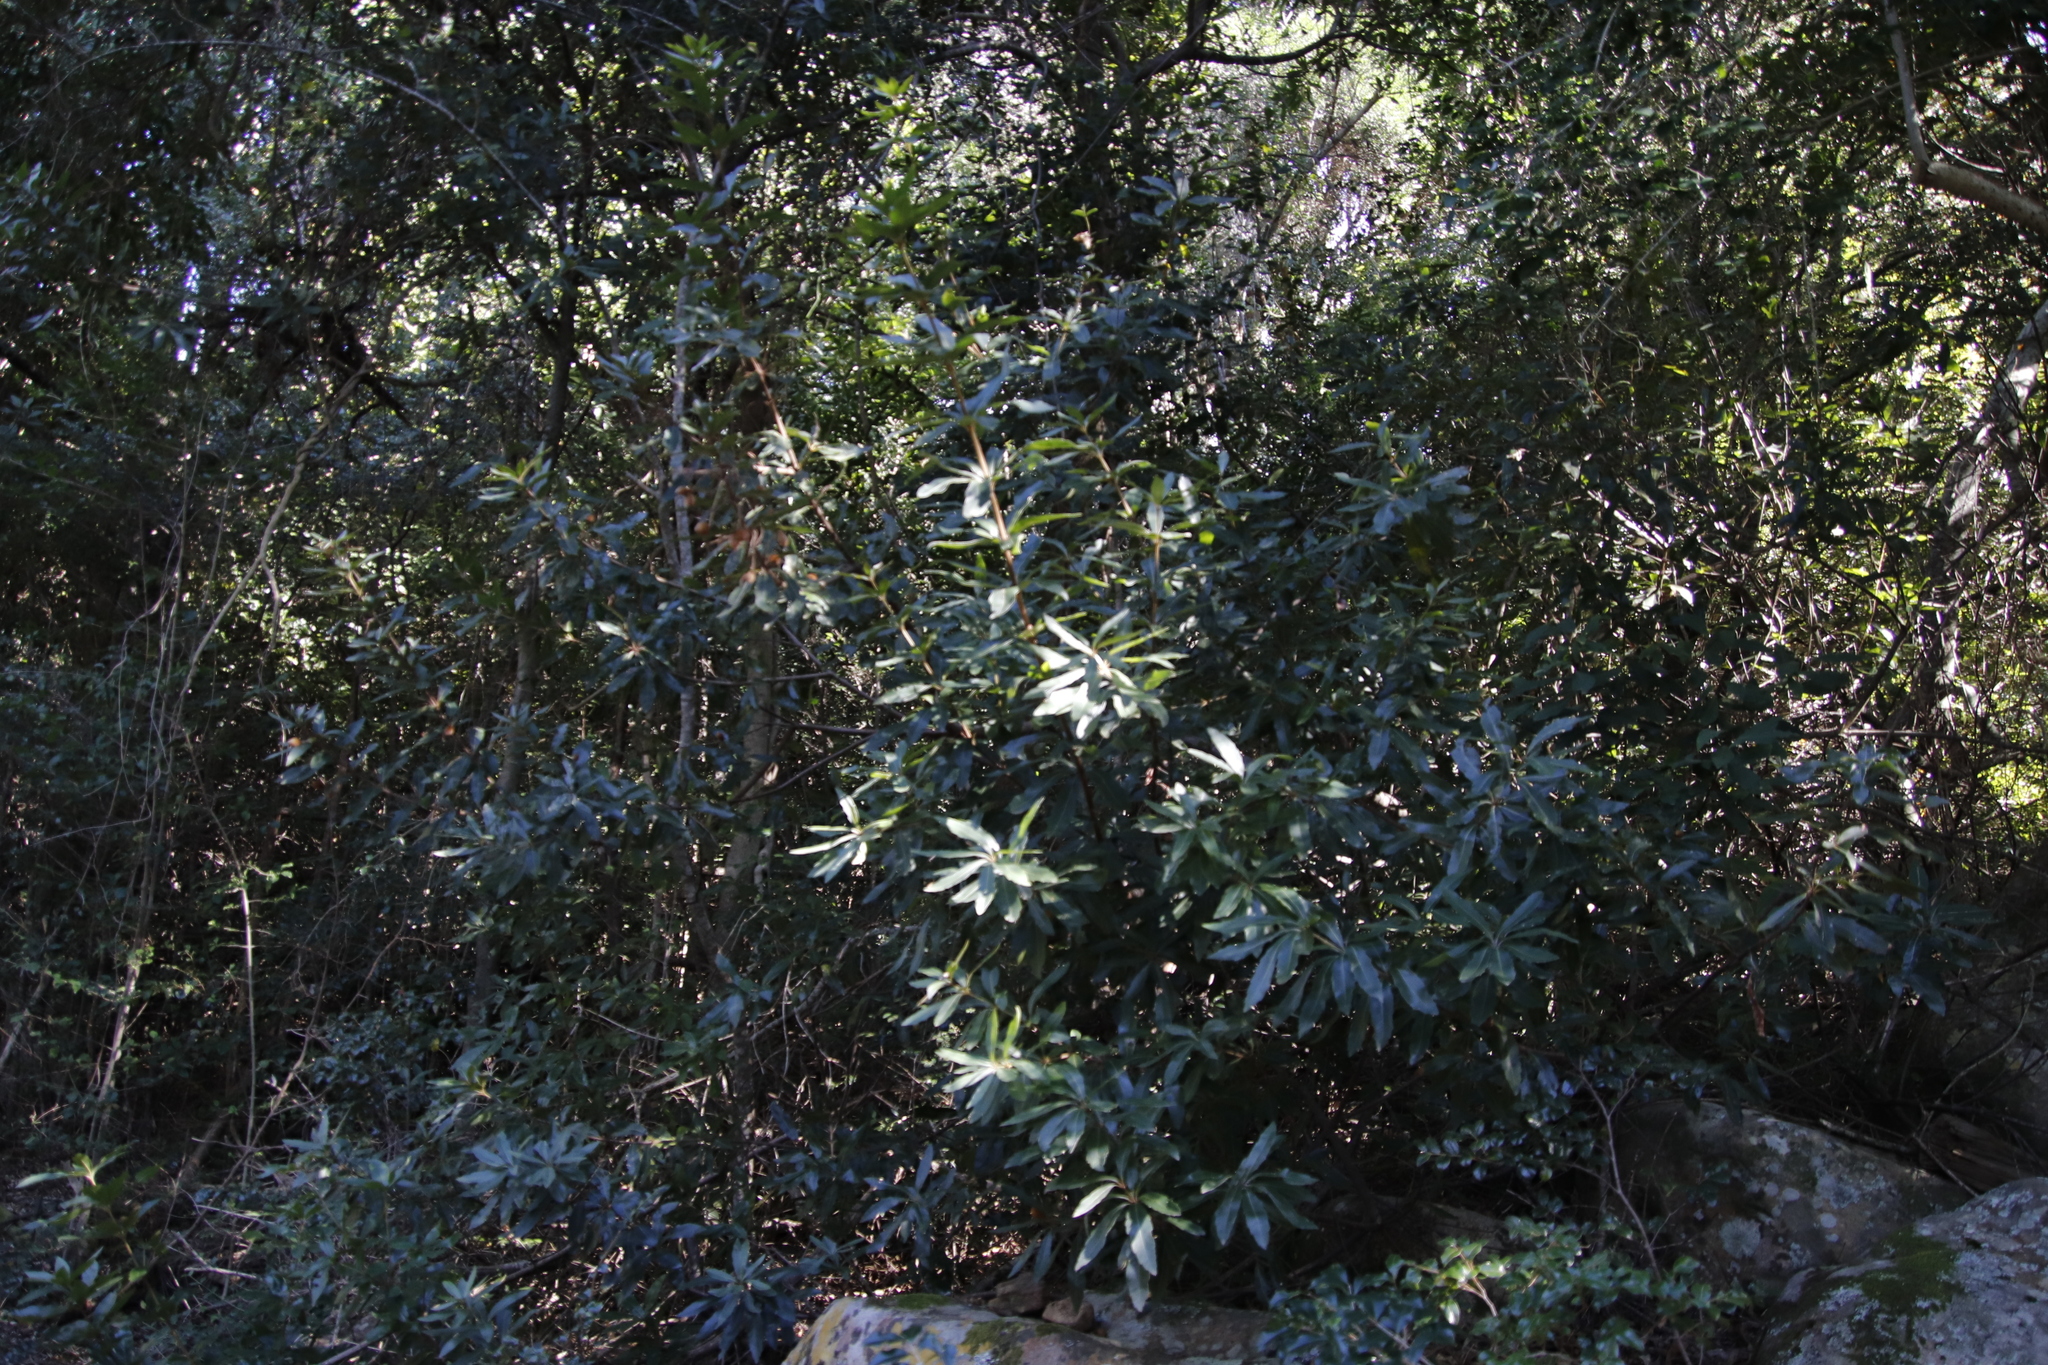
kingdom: Plantae
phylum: Tracheophyta
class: Magnoliopsida
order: Proteales
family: Proteaceae
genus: Brabejum
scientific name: Brabejum stellatifolium
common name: Wild almond
